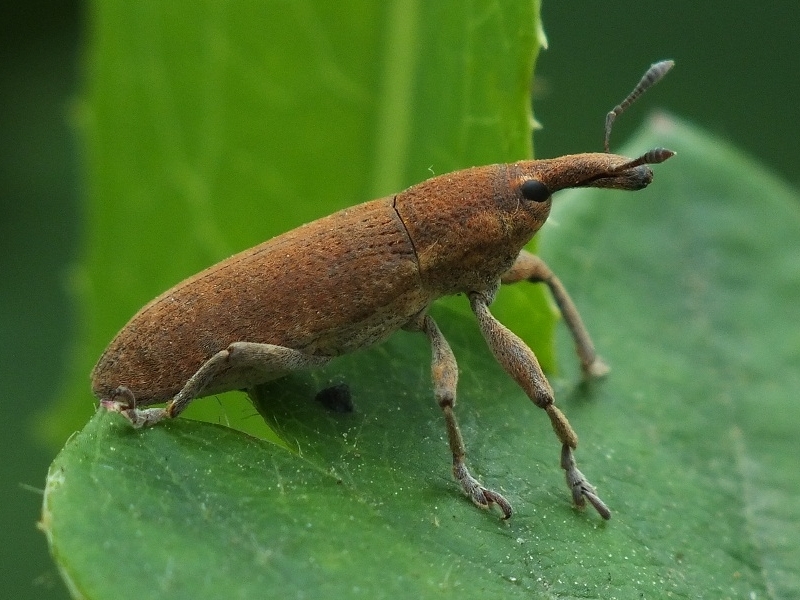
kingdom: Animalia
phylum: Arthropoda
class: Insecta
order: Coleoptera
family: Curculionidae
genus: Lixus
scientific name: Lixus punctiventris
